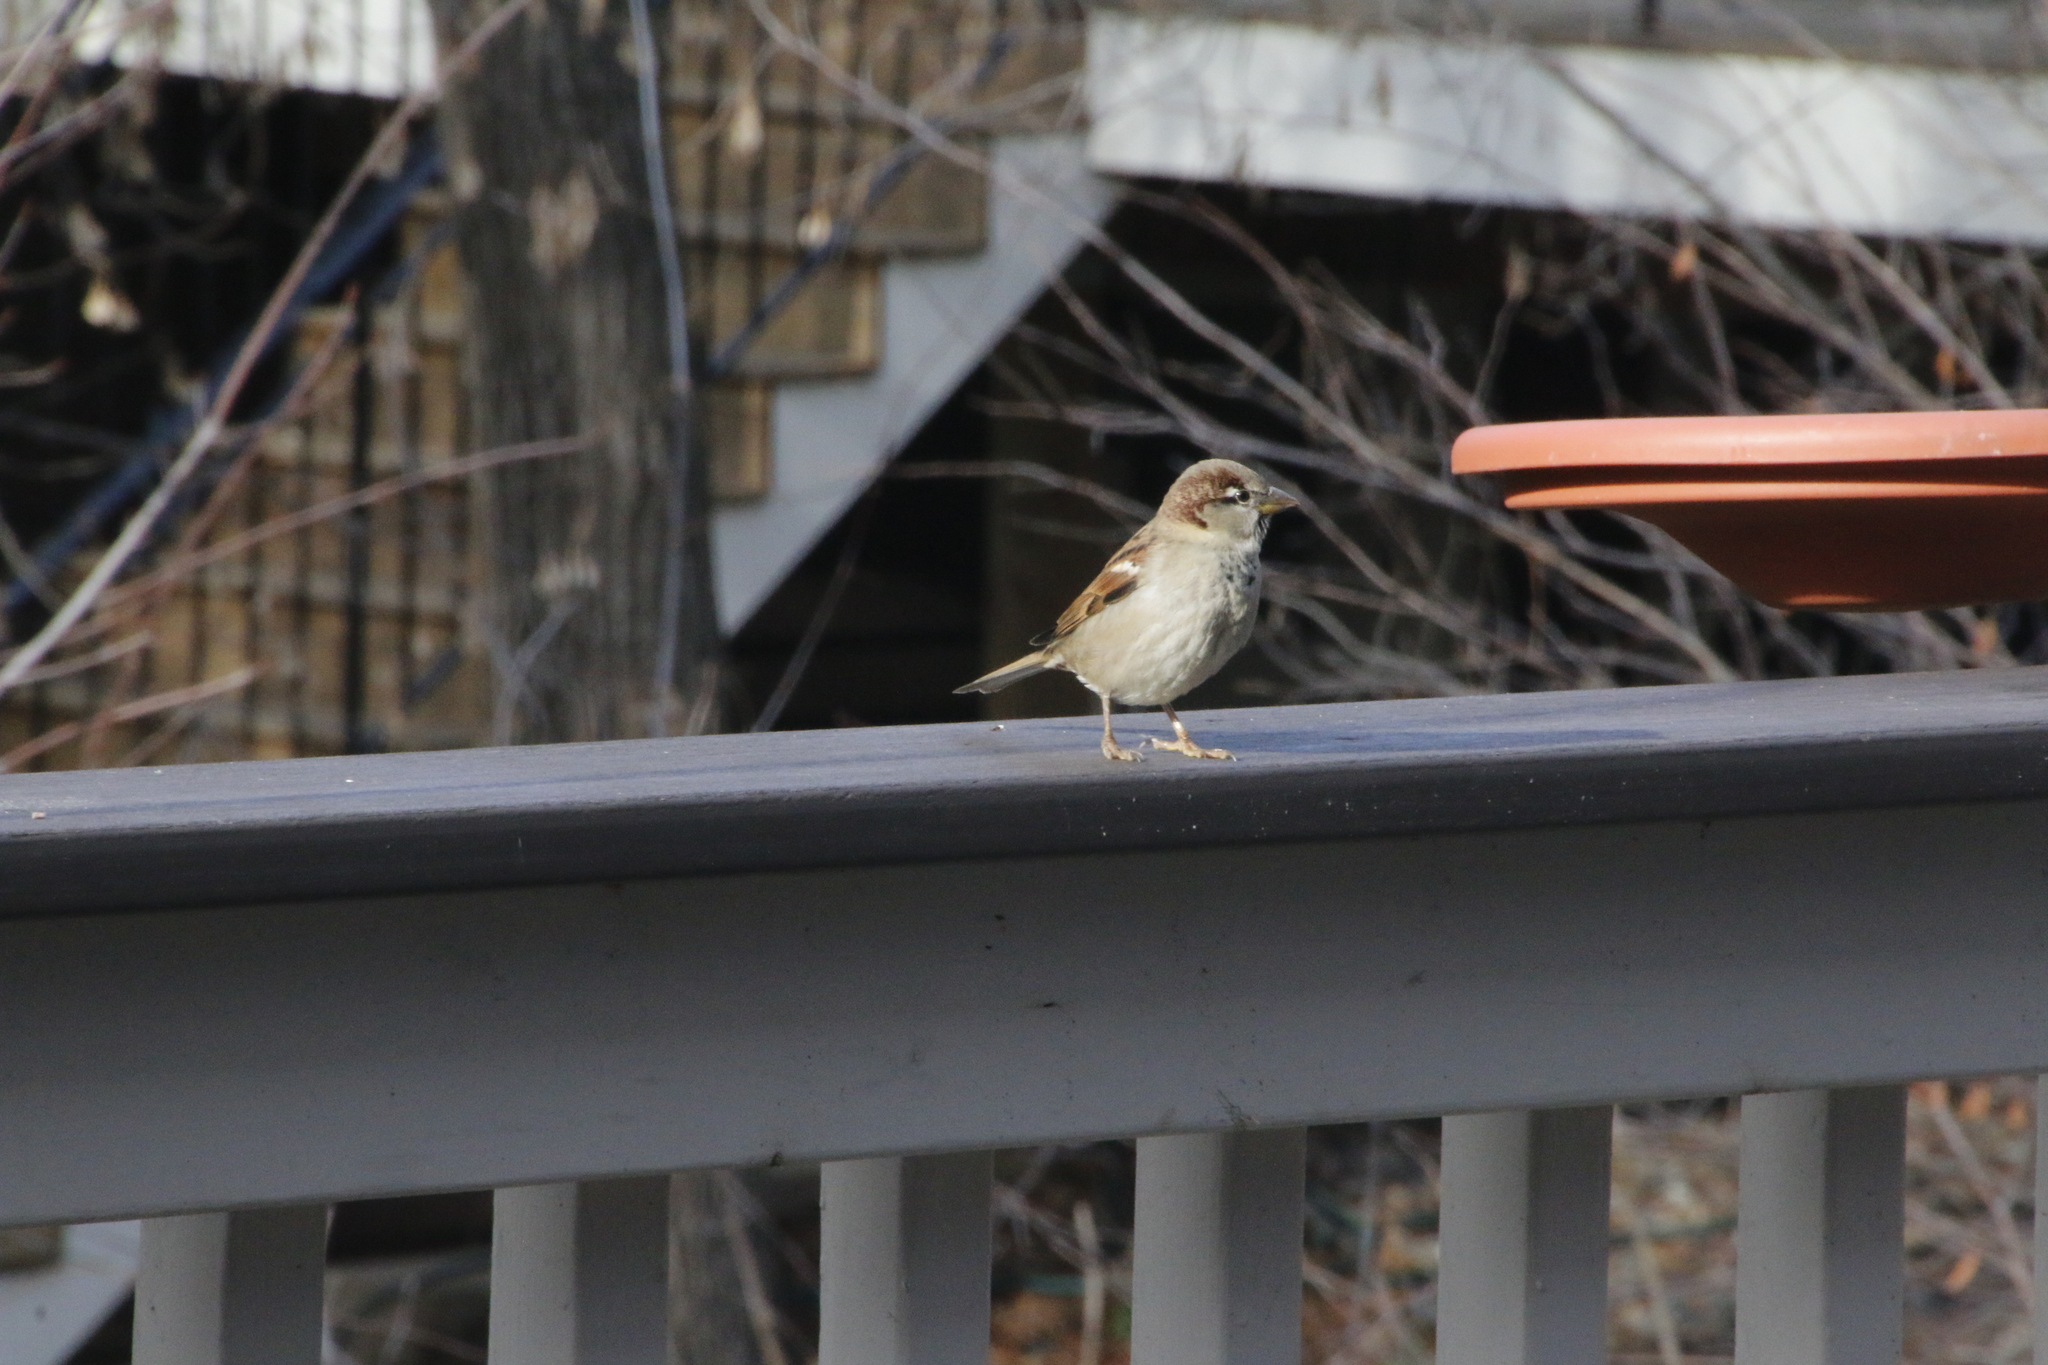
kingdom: Animalia
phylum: Chordata
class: Aves
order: Passeriformes
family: Passeridae
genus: Passer
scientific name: Passer domesticus
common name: House sparrow
